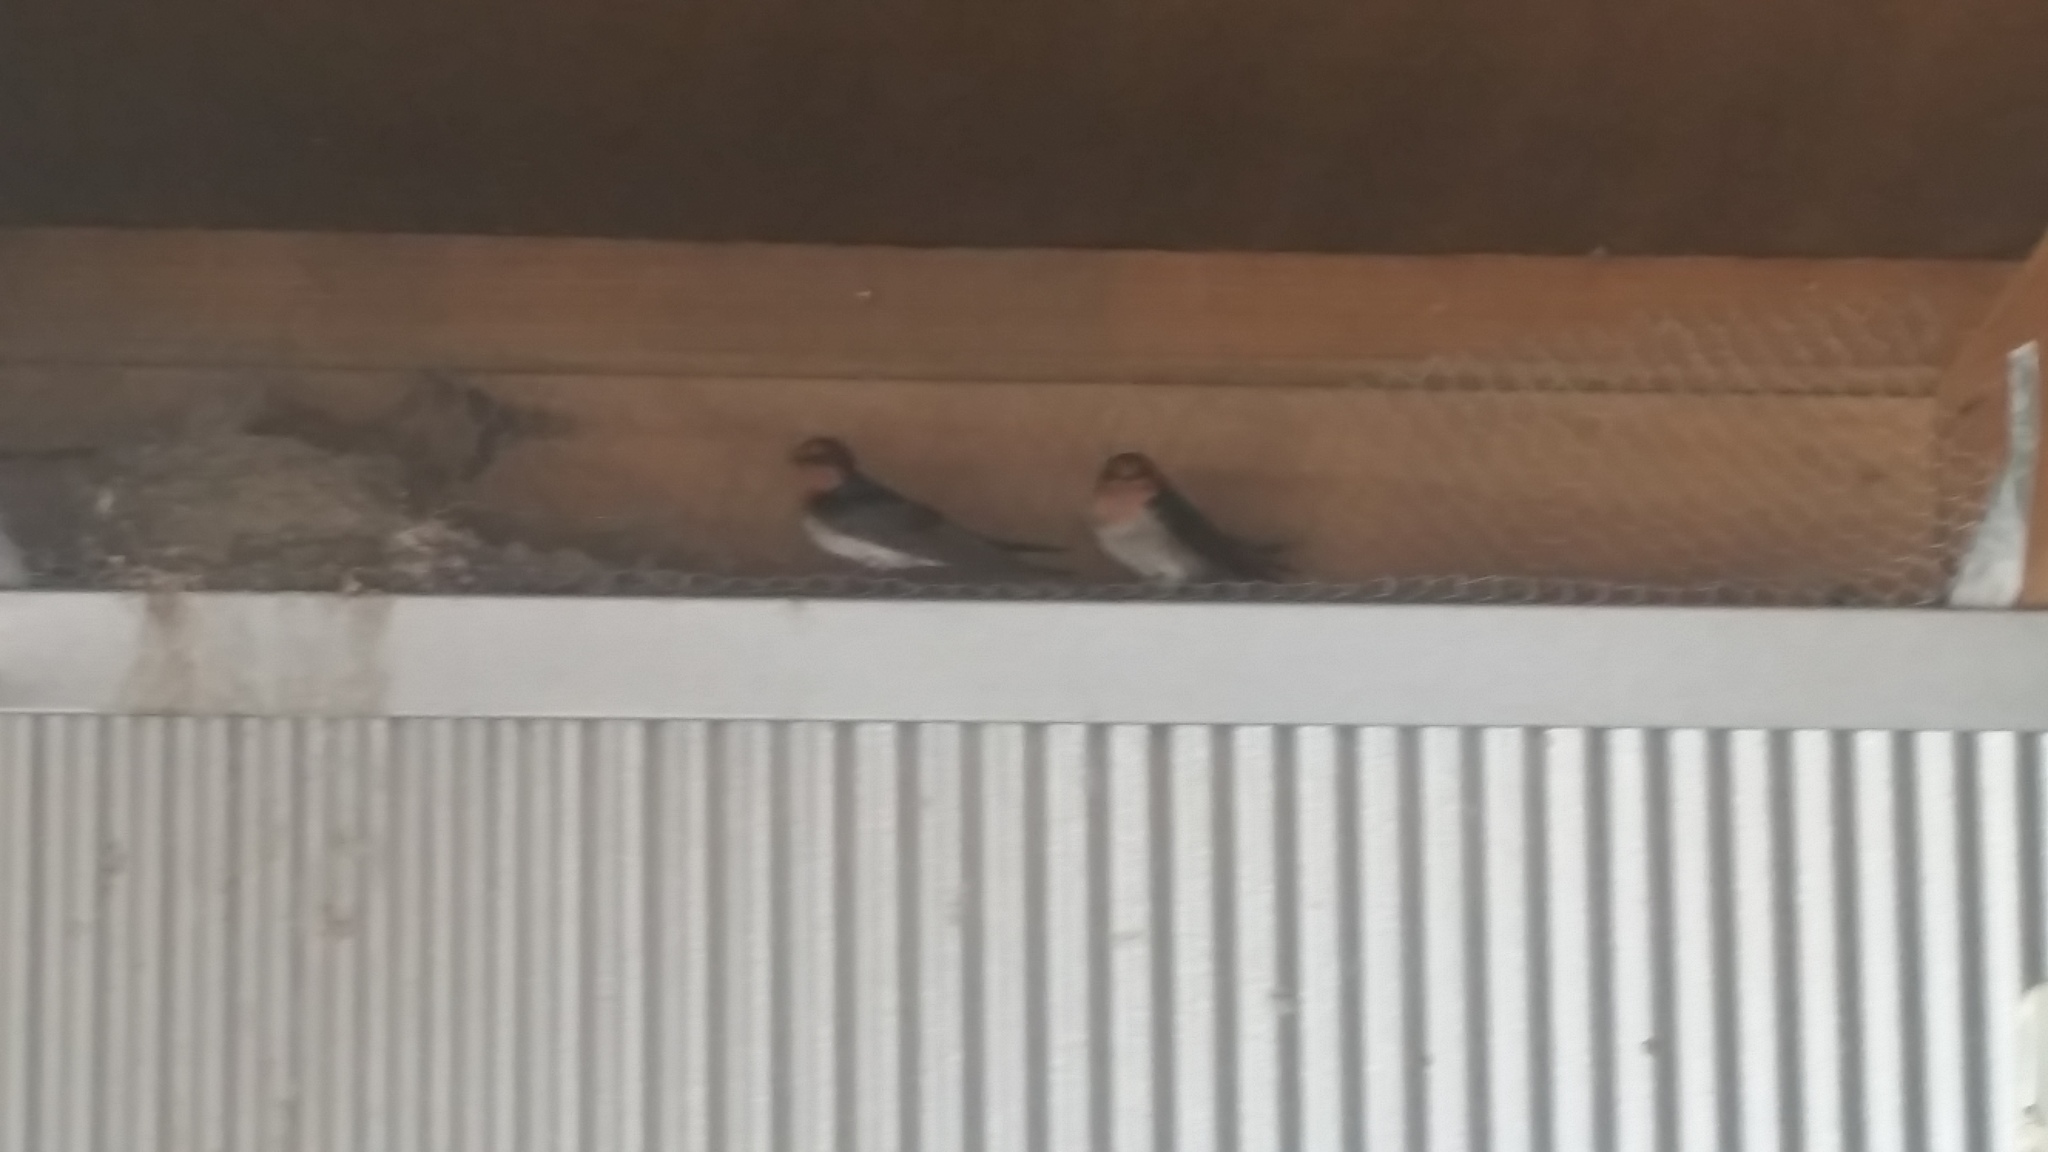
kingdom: Animalia
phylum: Chordata
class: Aves
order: Passeriformes
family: Hirundinidae
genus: Hirundo
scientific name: Hirundo neoxena
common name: Welcome swallow
